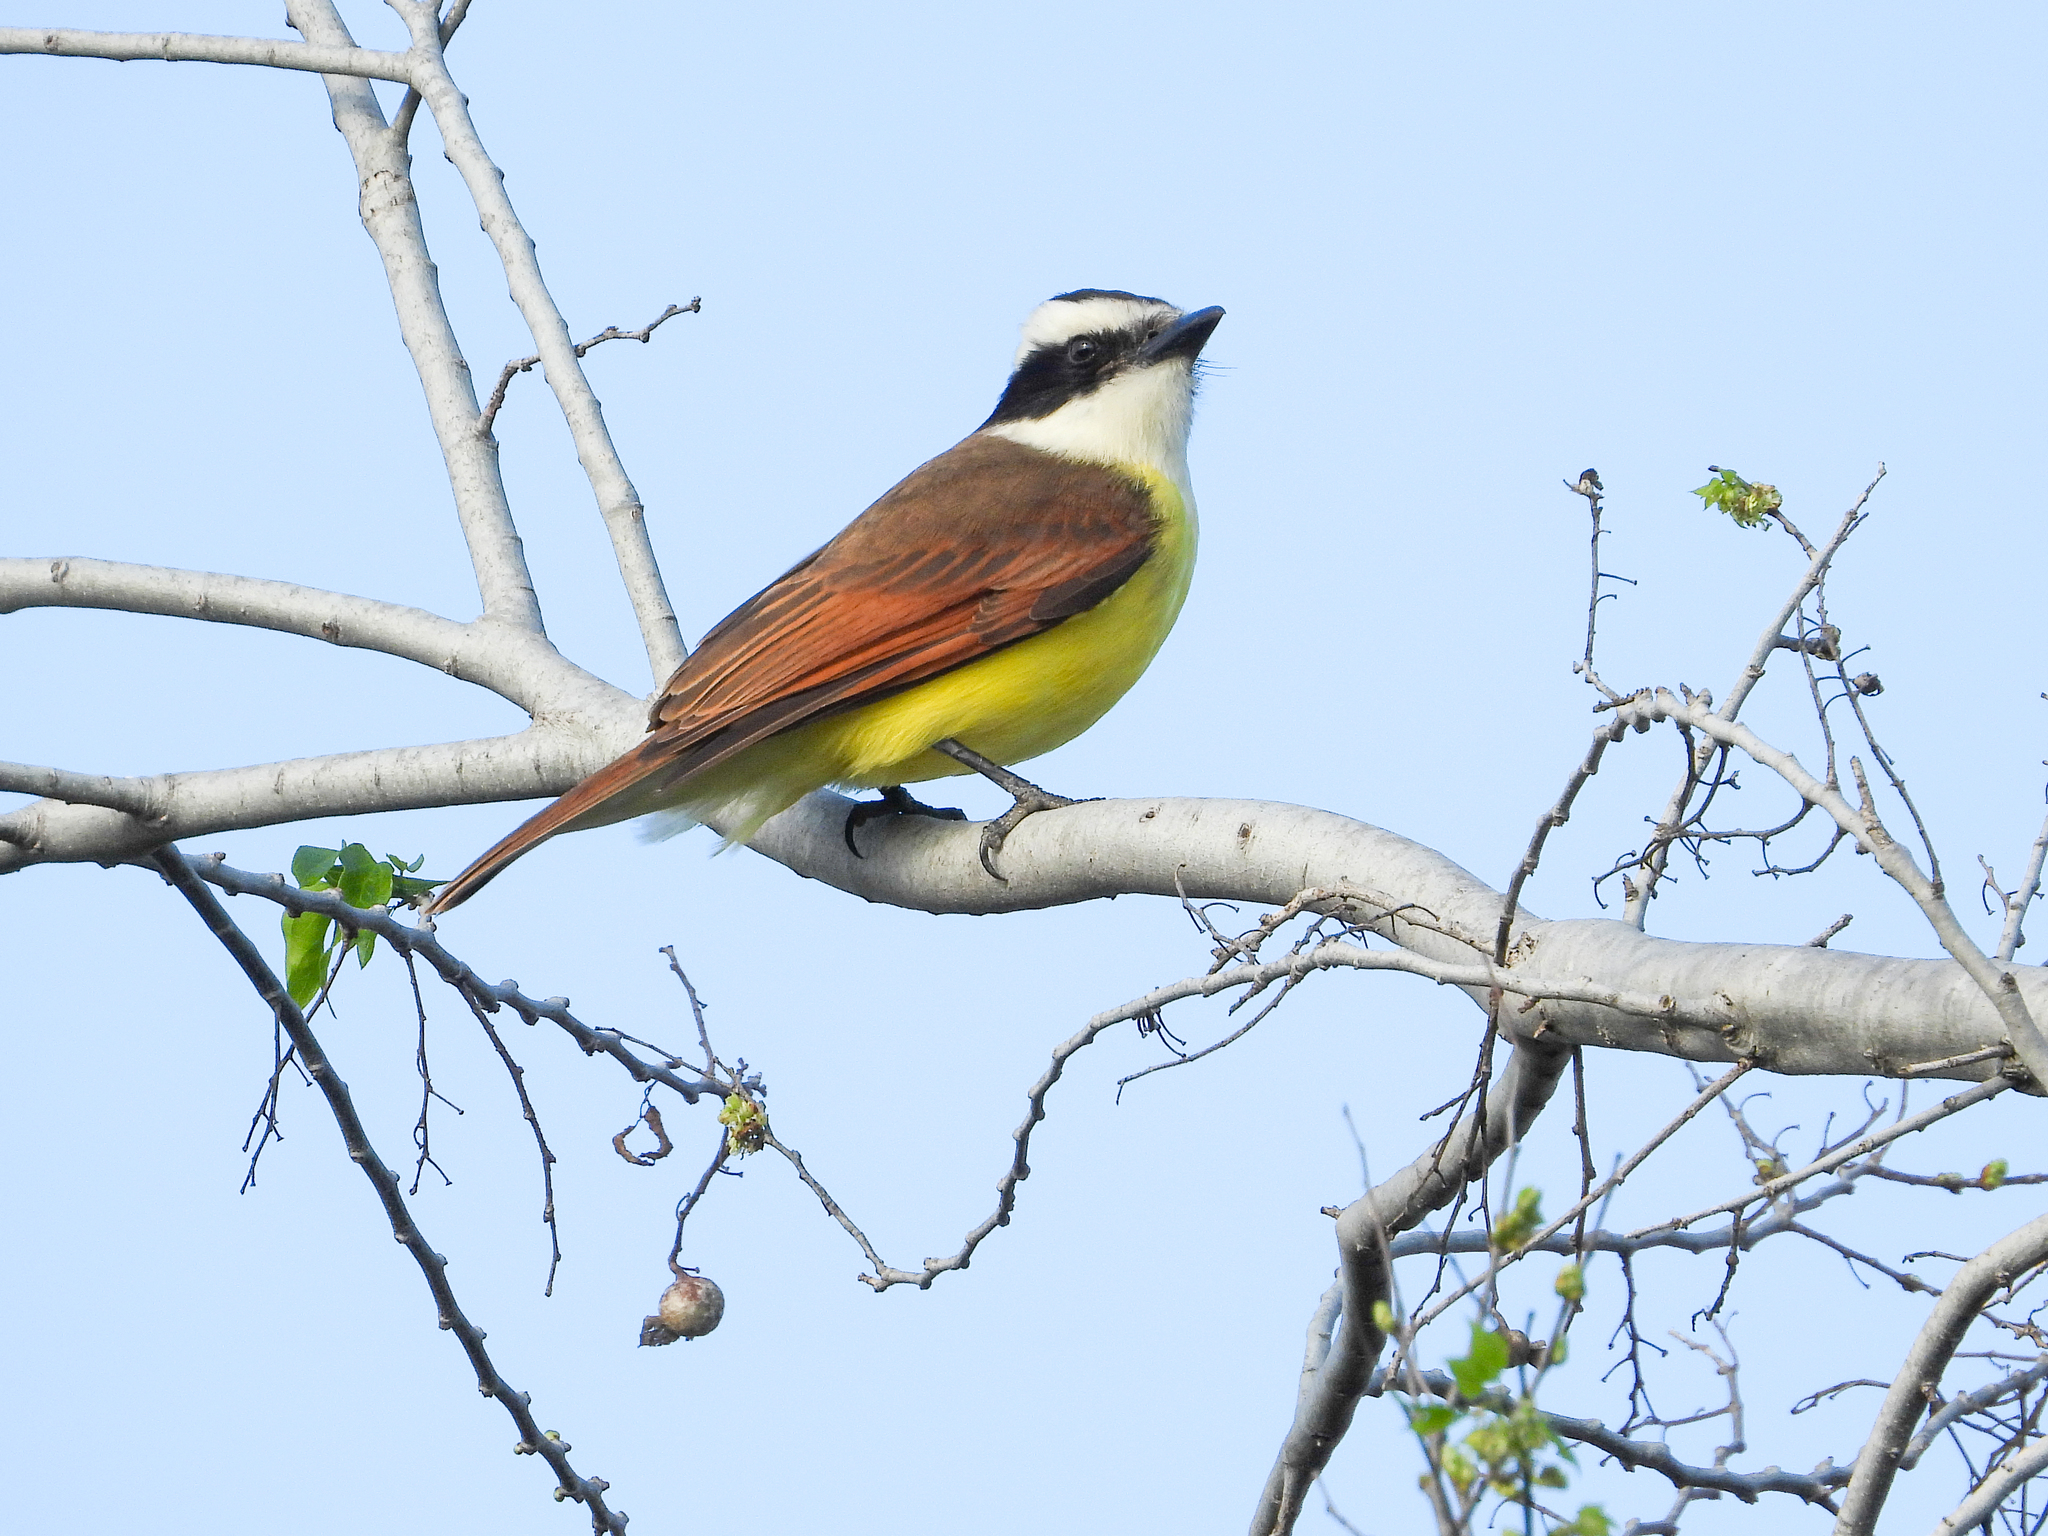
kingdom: Animalia
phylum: Chordata
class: Aves
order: Passeriformes
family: Tyrannidae
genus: Pitangus
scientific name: Pitangus sulphuratus
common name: Great kiskadee
